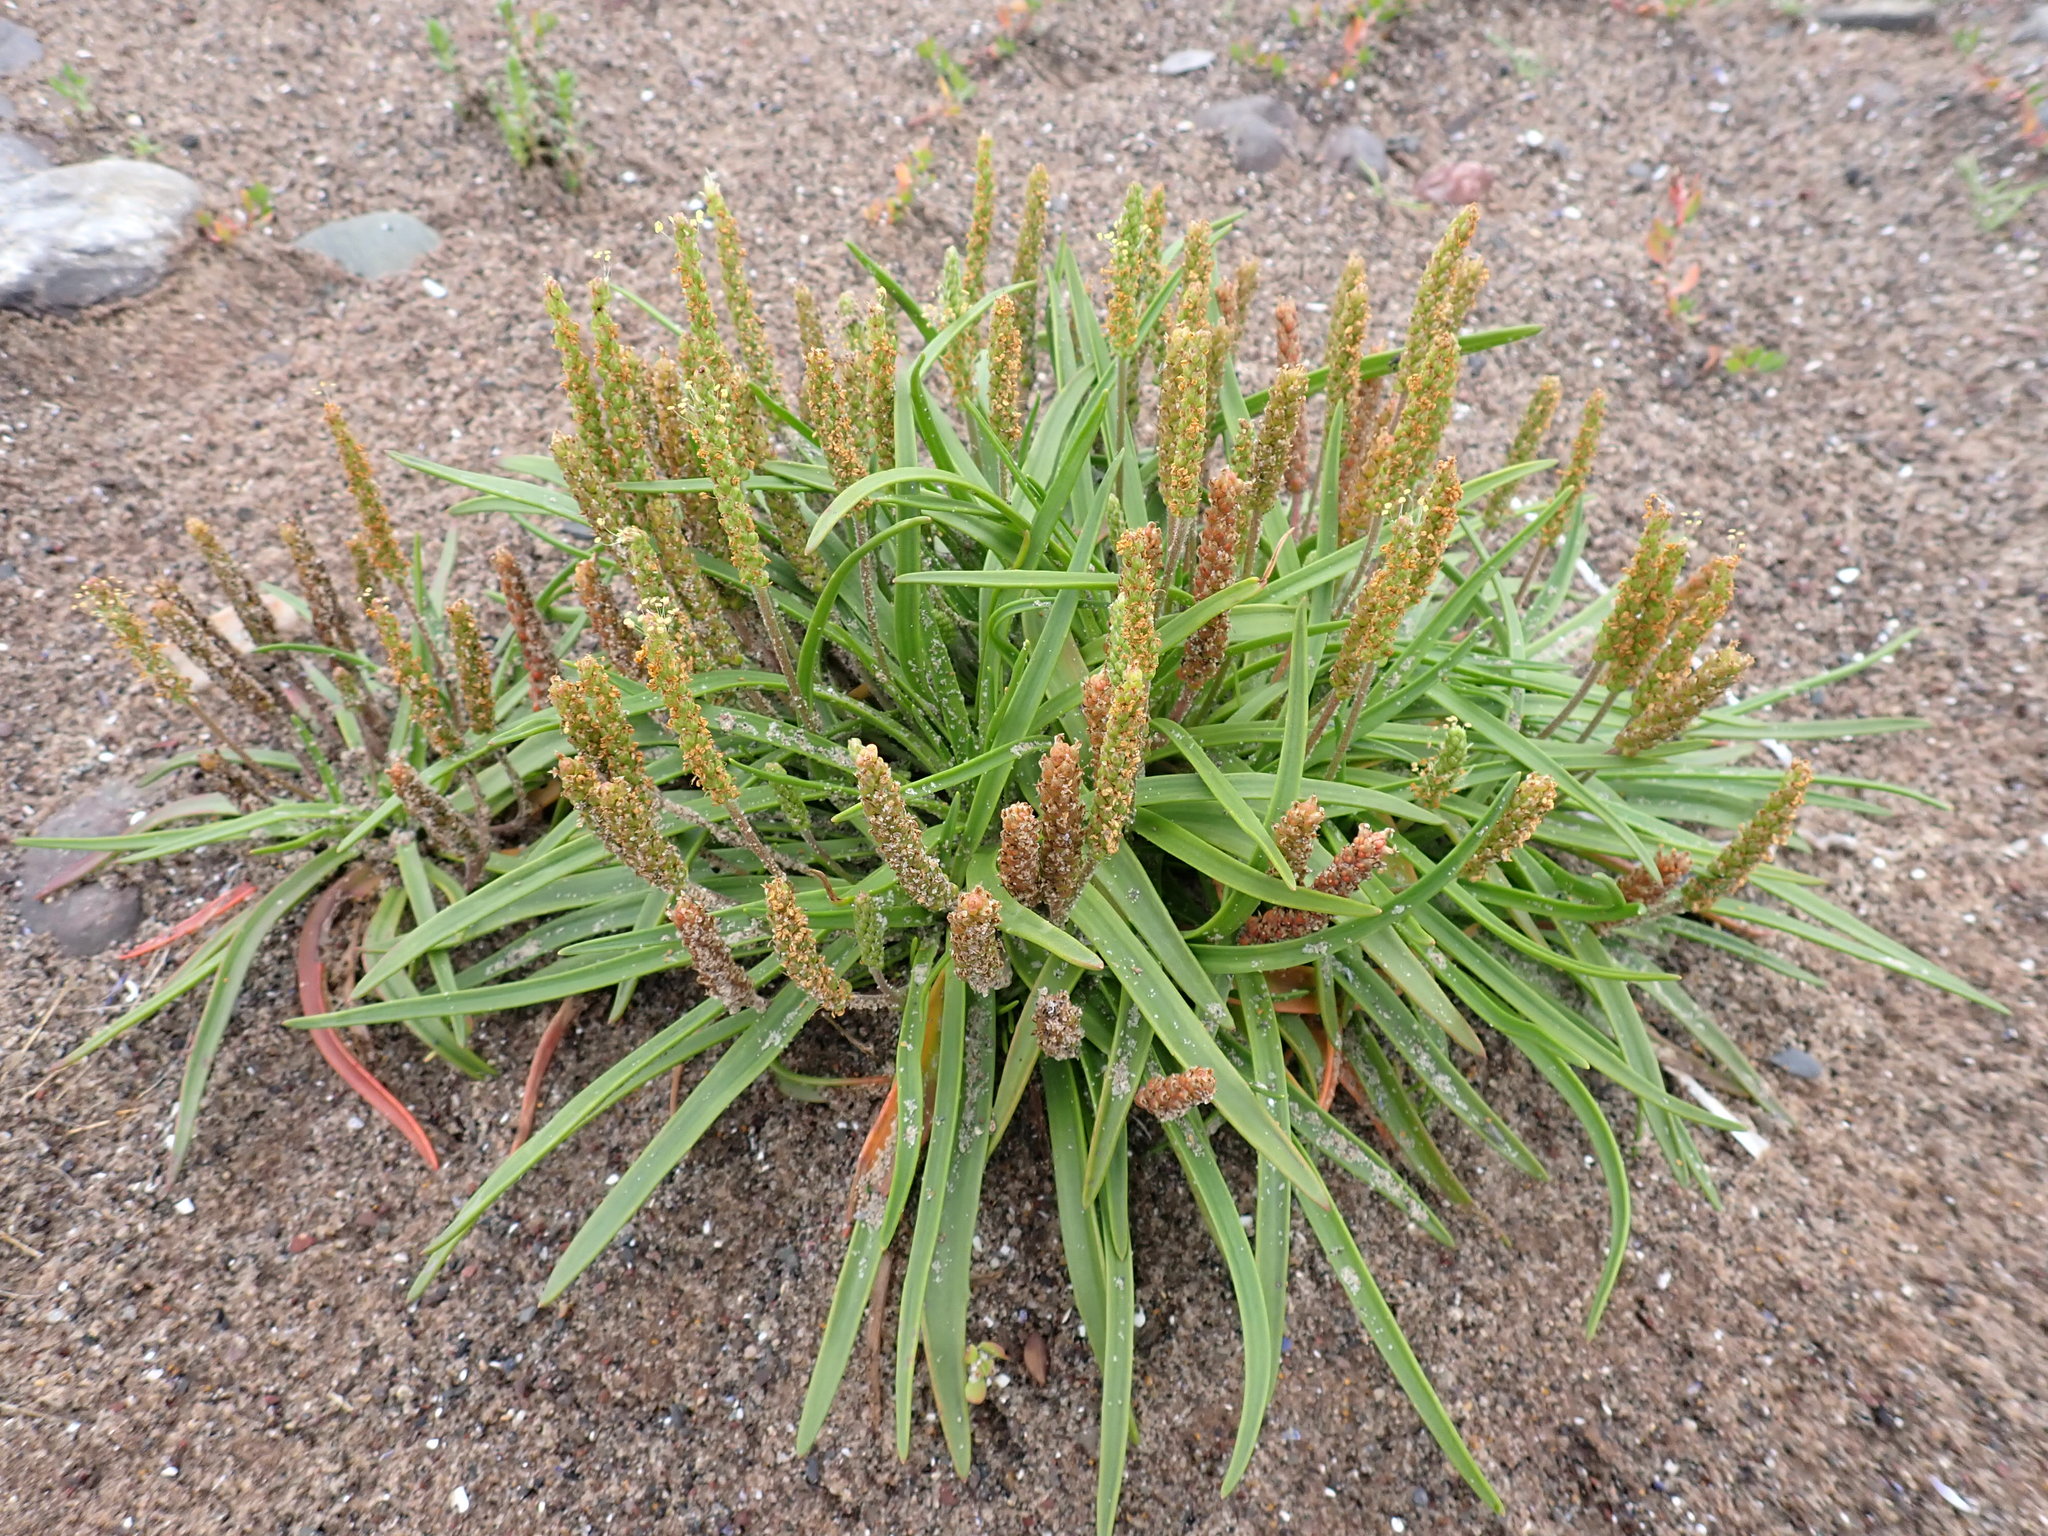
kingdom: Plantae
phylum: Tracheophyta
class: Magnoliopsida
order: Lamiales
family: Plantaginaceae
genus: Plantago
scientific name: Plantago maritima
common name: Sea plantain
